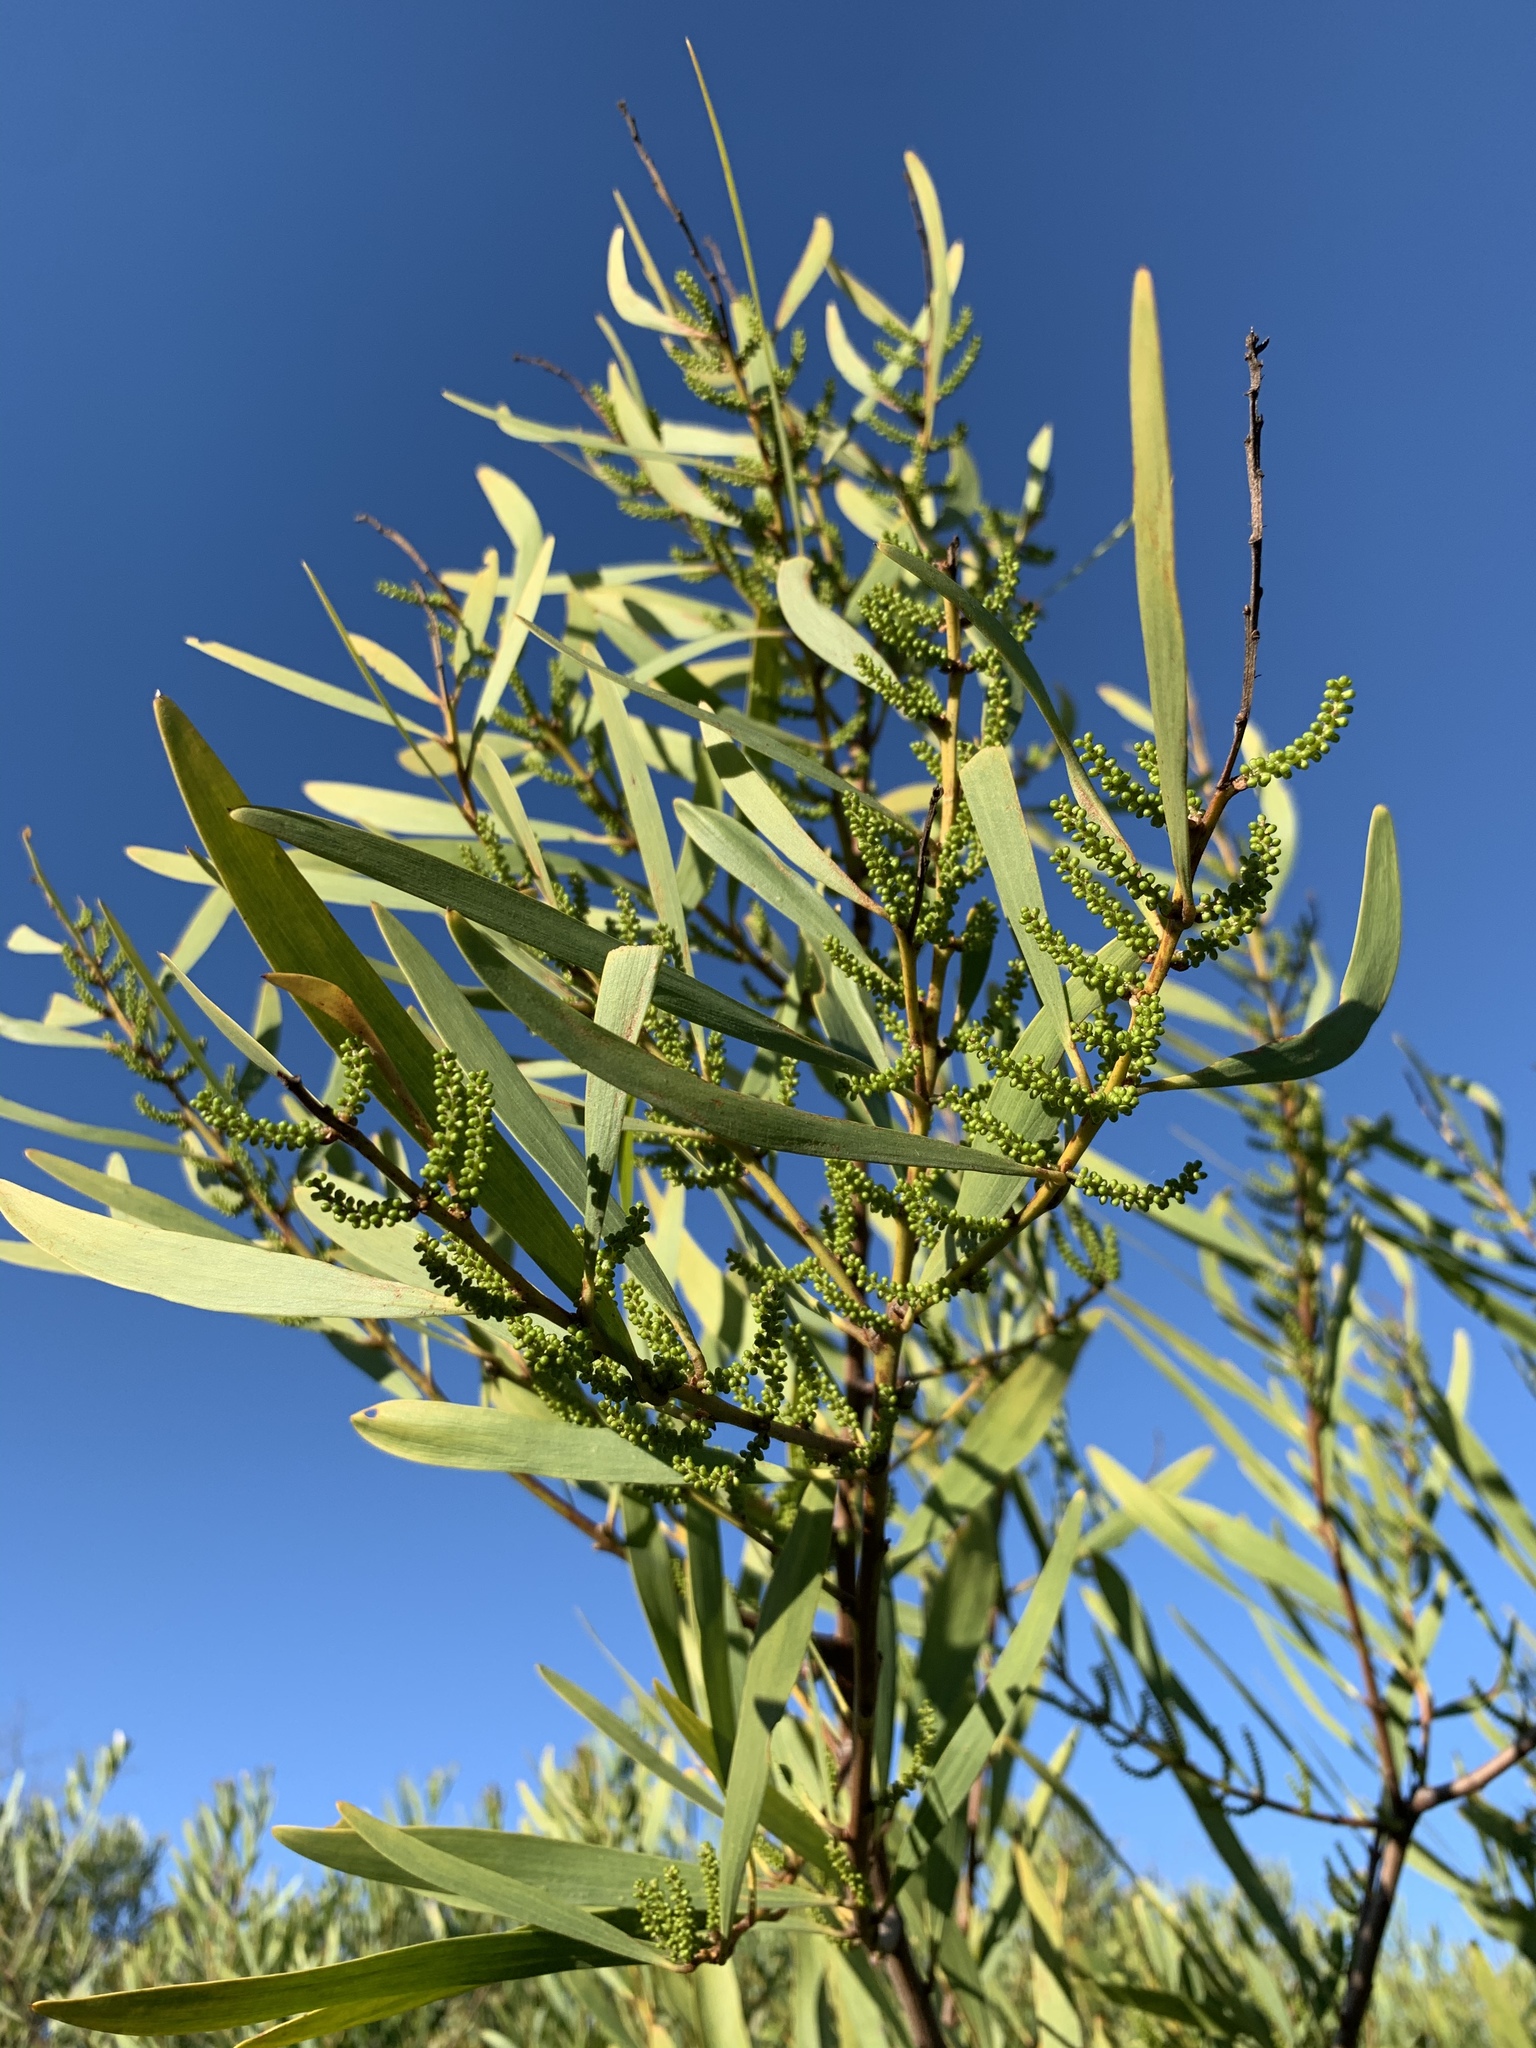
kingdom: Plantae
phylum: Tracheophyta
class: Magnoliopsida
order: Fabales
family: Fabaceae
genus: Acacia
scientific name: Acacia longifolia
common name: Sydney golden wattle
